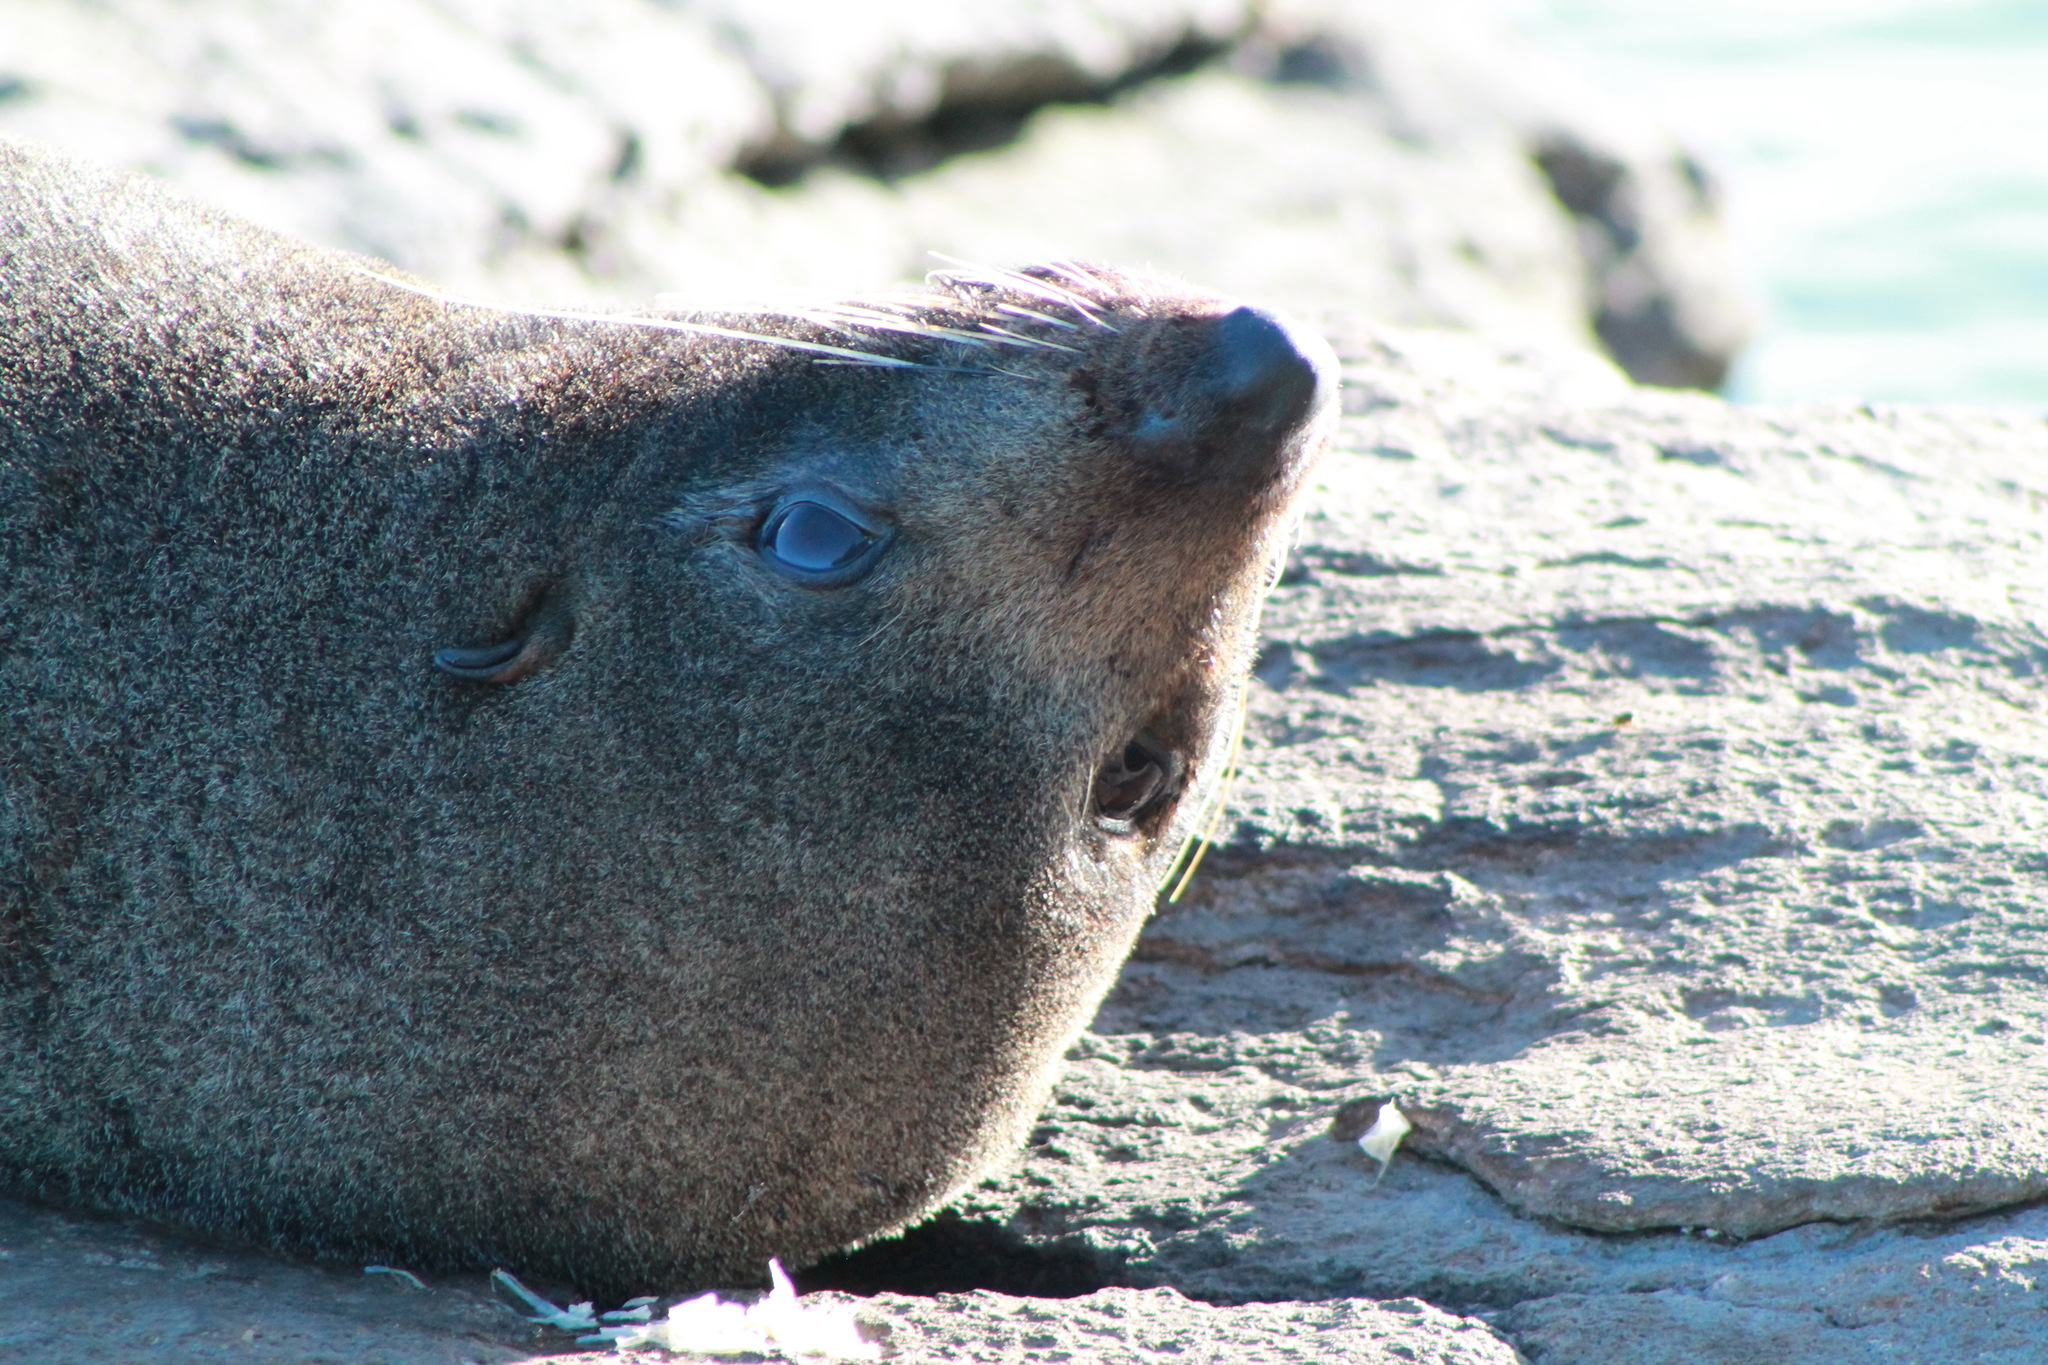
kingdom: Animalia
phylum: Chordata
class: Mammalia
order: Carnivora
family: Otariidae
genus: Arctocephalus
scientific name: Arctocephalus forsteri
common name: New zealand fur seal
